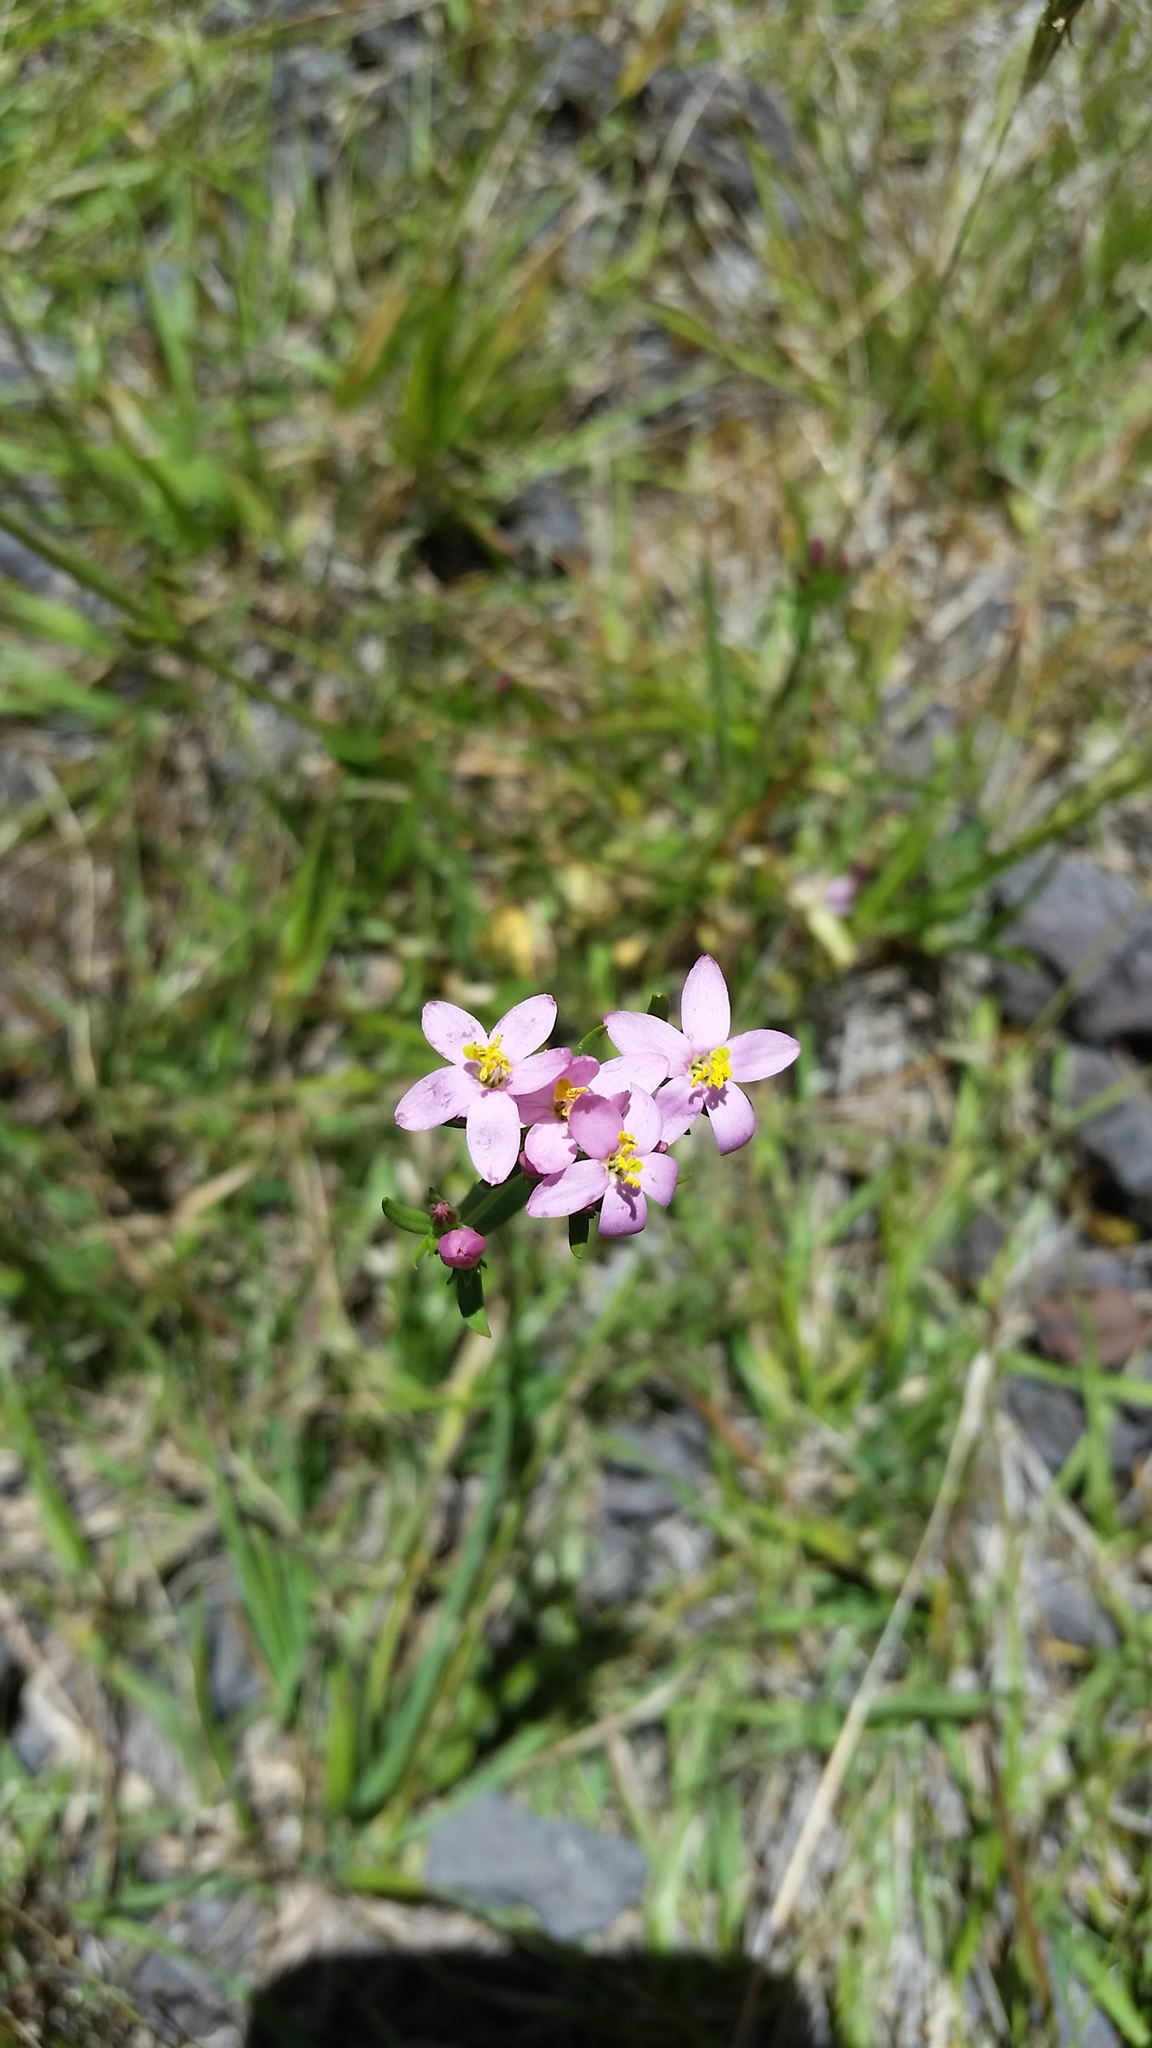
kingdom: Plantae
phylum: Tracheophyta
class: Magnoliopsida
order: Gentianales
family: Gentianaceae
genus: Centaurium
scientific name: Centaurium erythraea
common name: Common centaury
